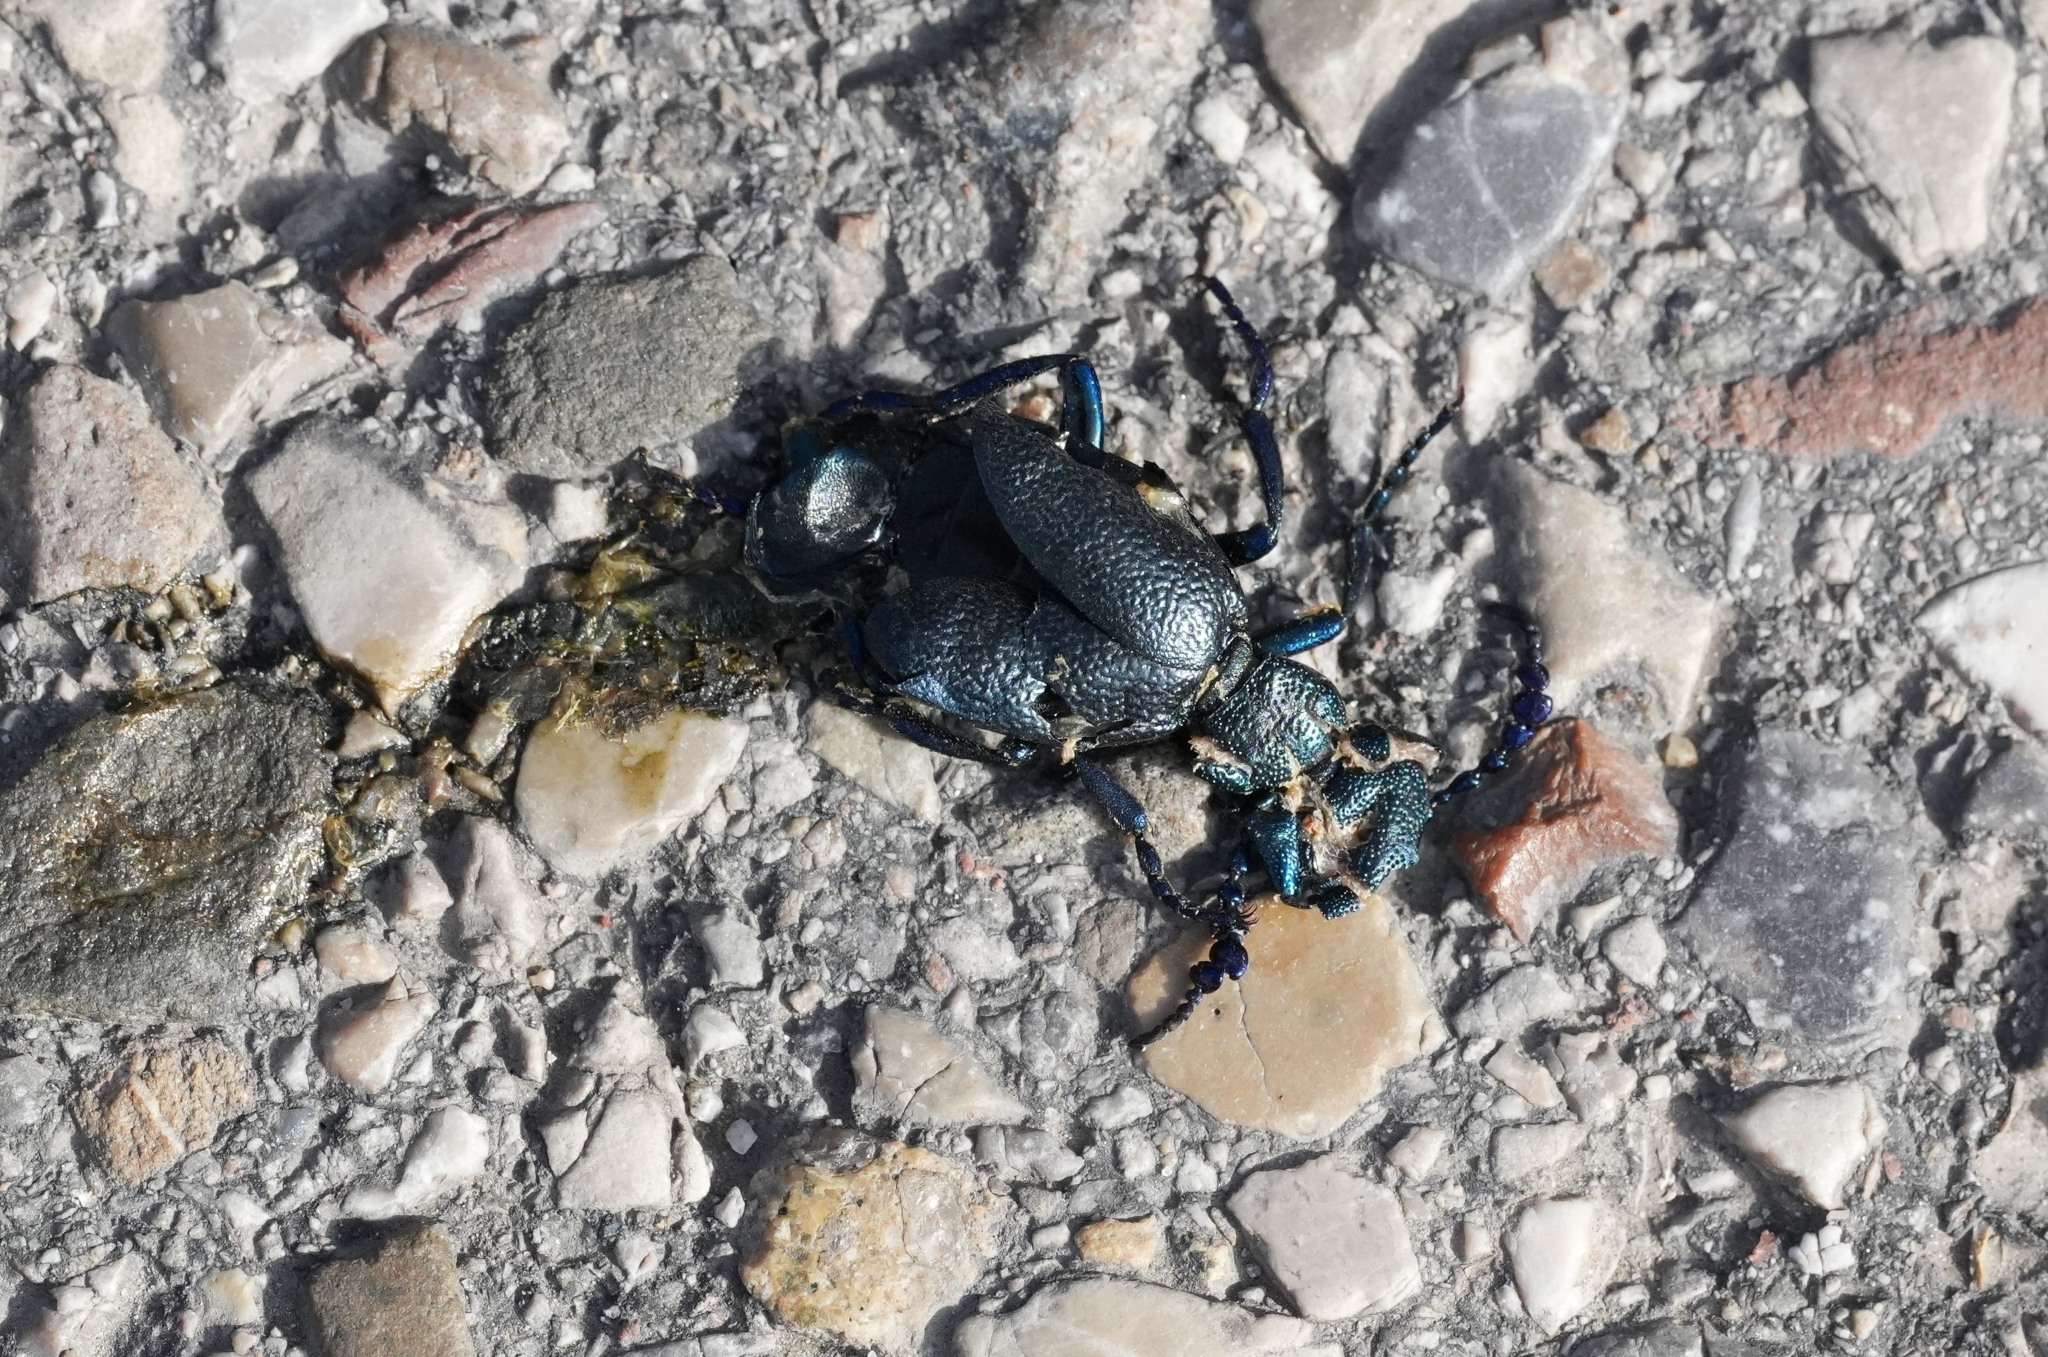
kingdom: Animalia
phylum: Arthropoda
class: Insecta
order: Coleoptera
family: Meloidae
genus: Meloe
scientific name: Meloe proscarabaeus
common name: Black oil-beetle
